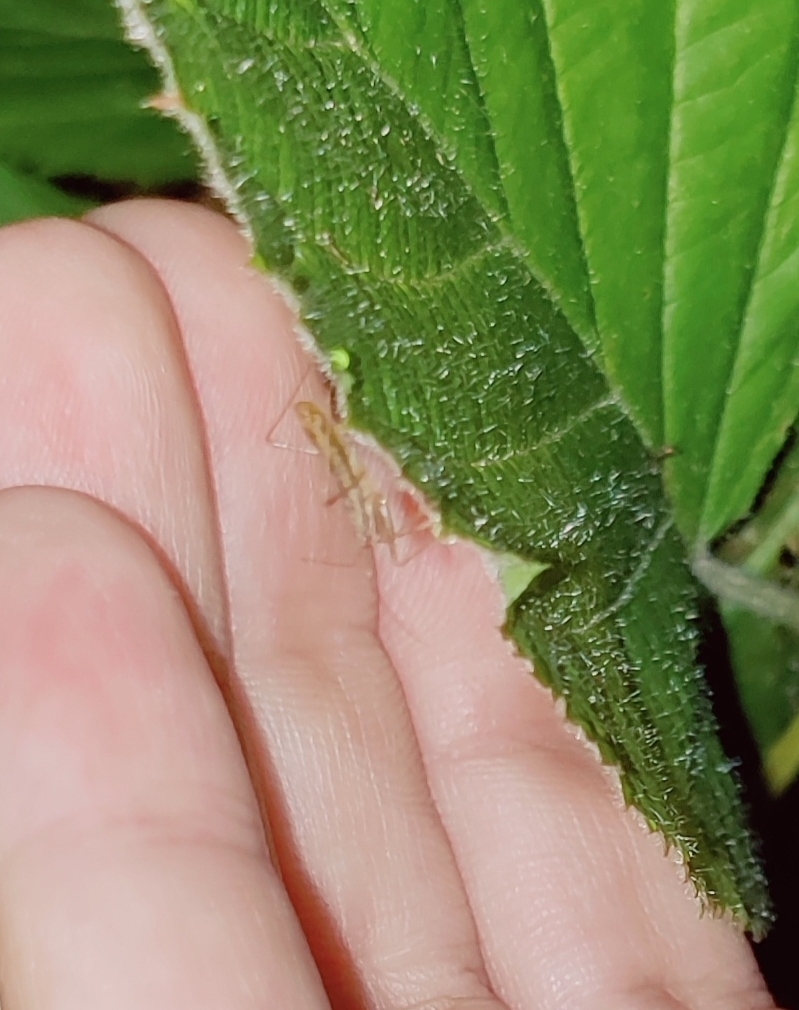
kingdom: Animalia
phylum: Arthropoda
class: Insecta
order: Hemiptera
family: Nabidae
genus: Nabis
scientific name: Nabis limbatus
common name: Marsh damselbug
